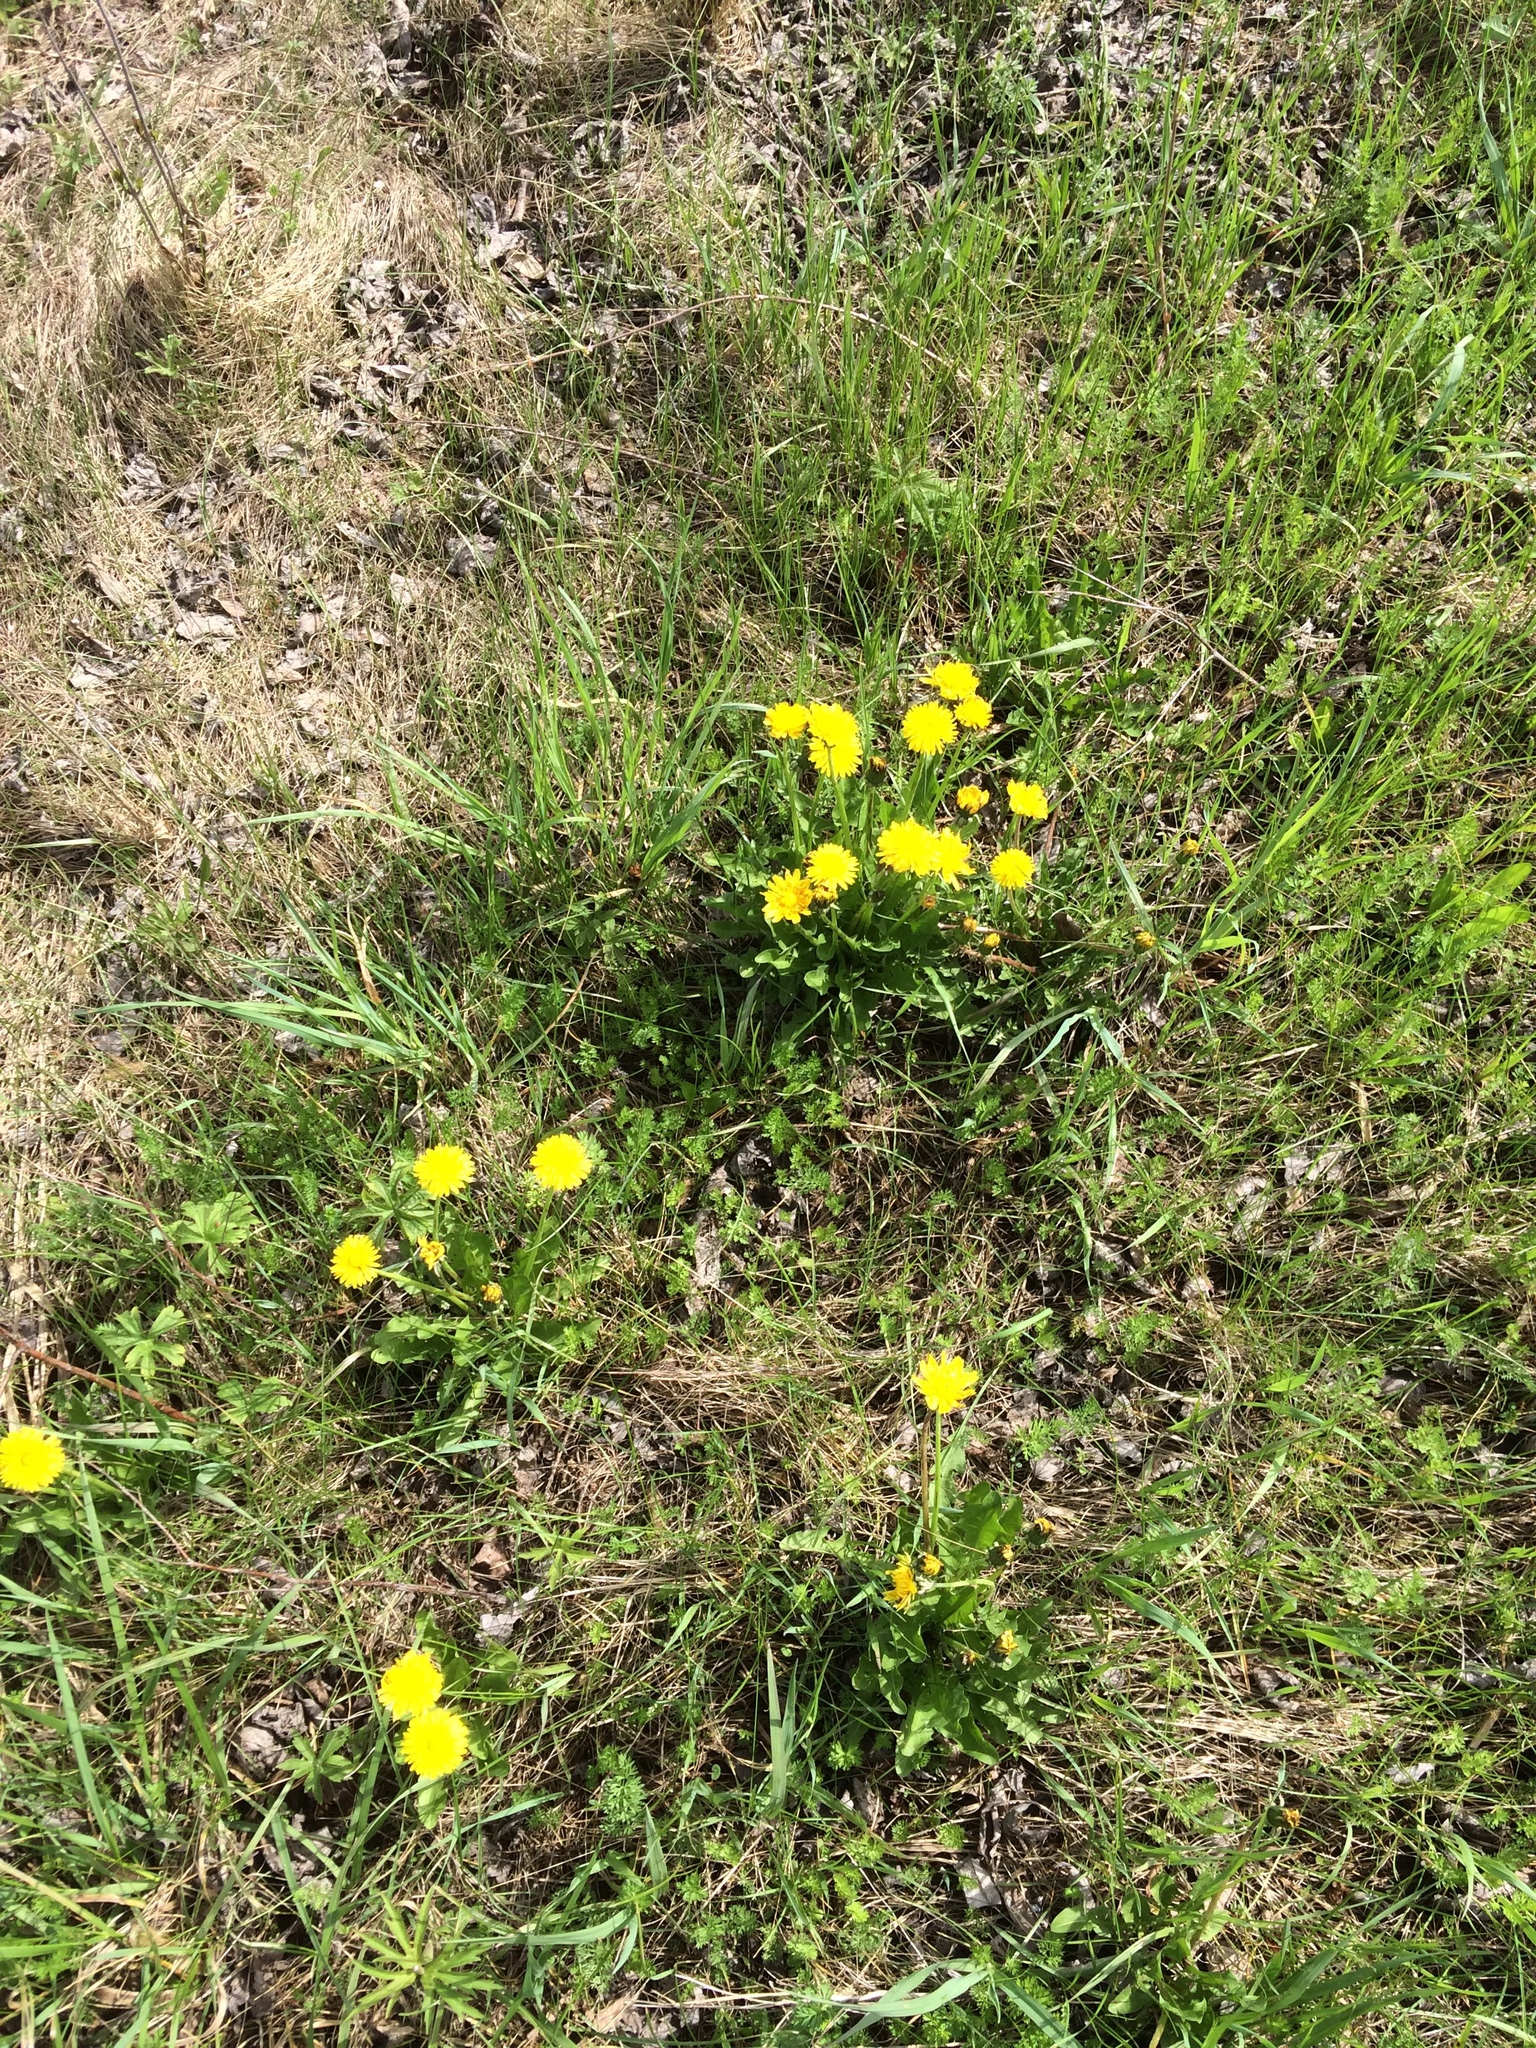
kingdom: Plantae
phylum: Tracheophyta
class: Magnoliopsida
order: Asterales
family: Asteraceae
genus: Taraxacum
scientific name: Taraxacum officinale
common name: Common dandelion
